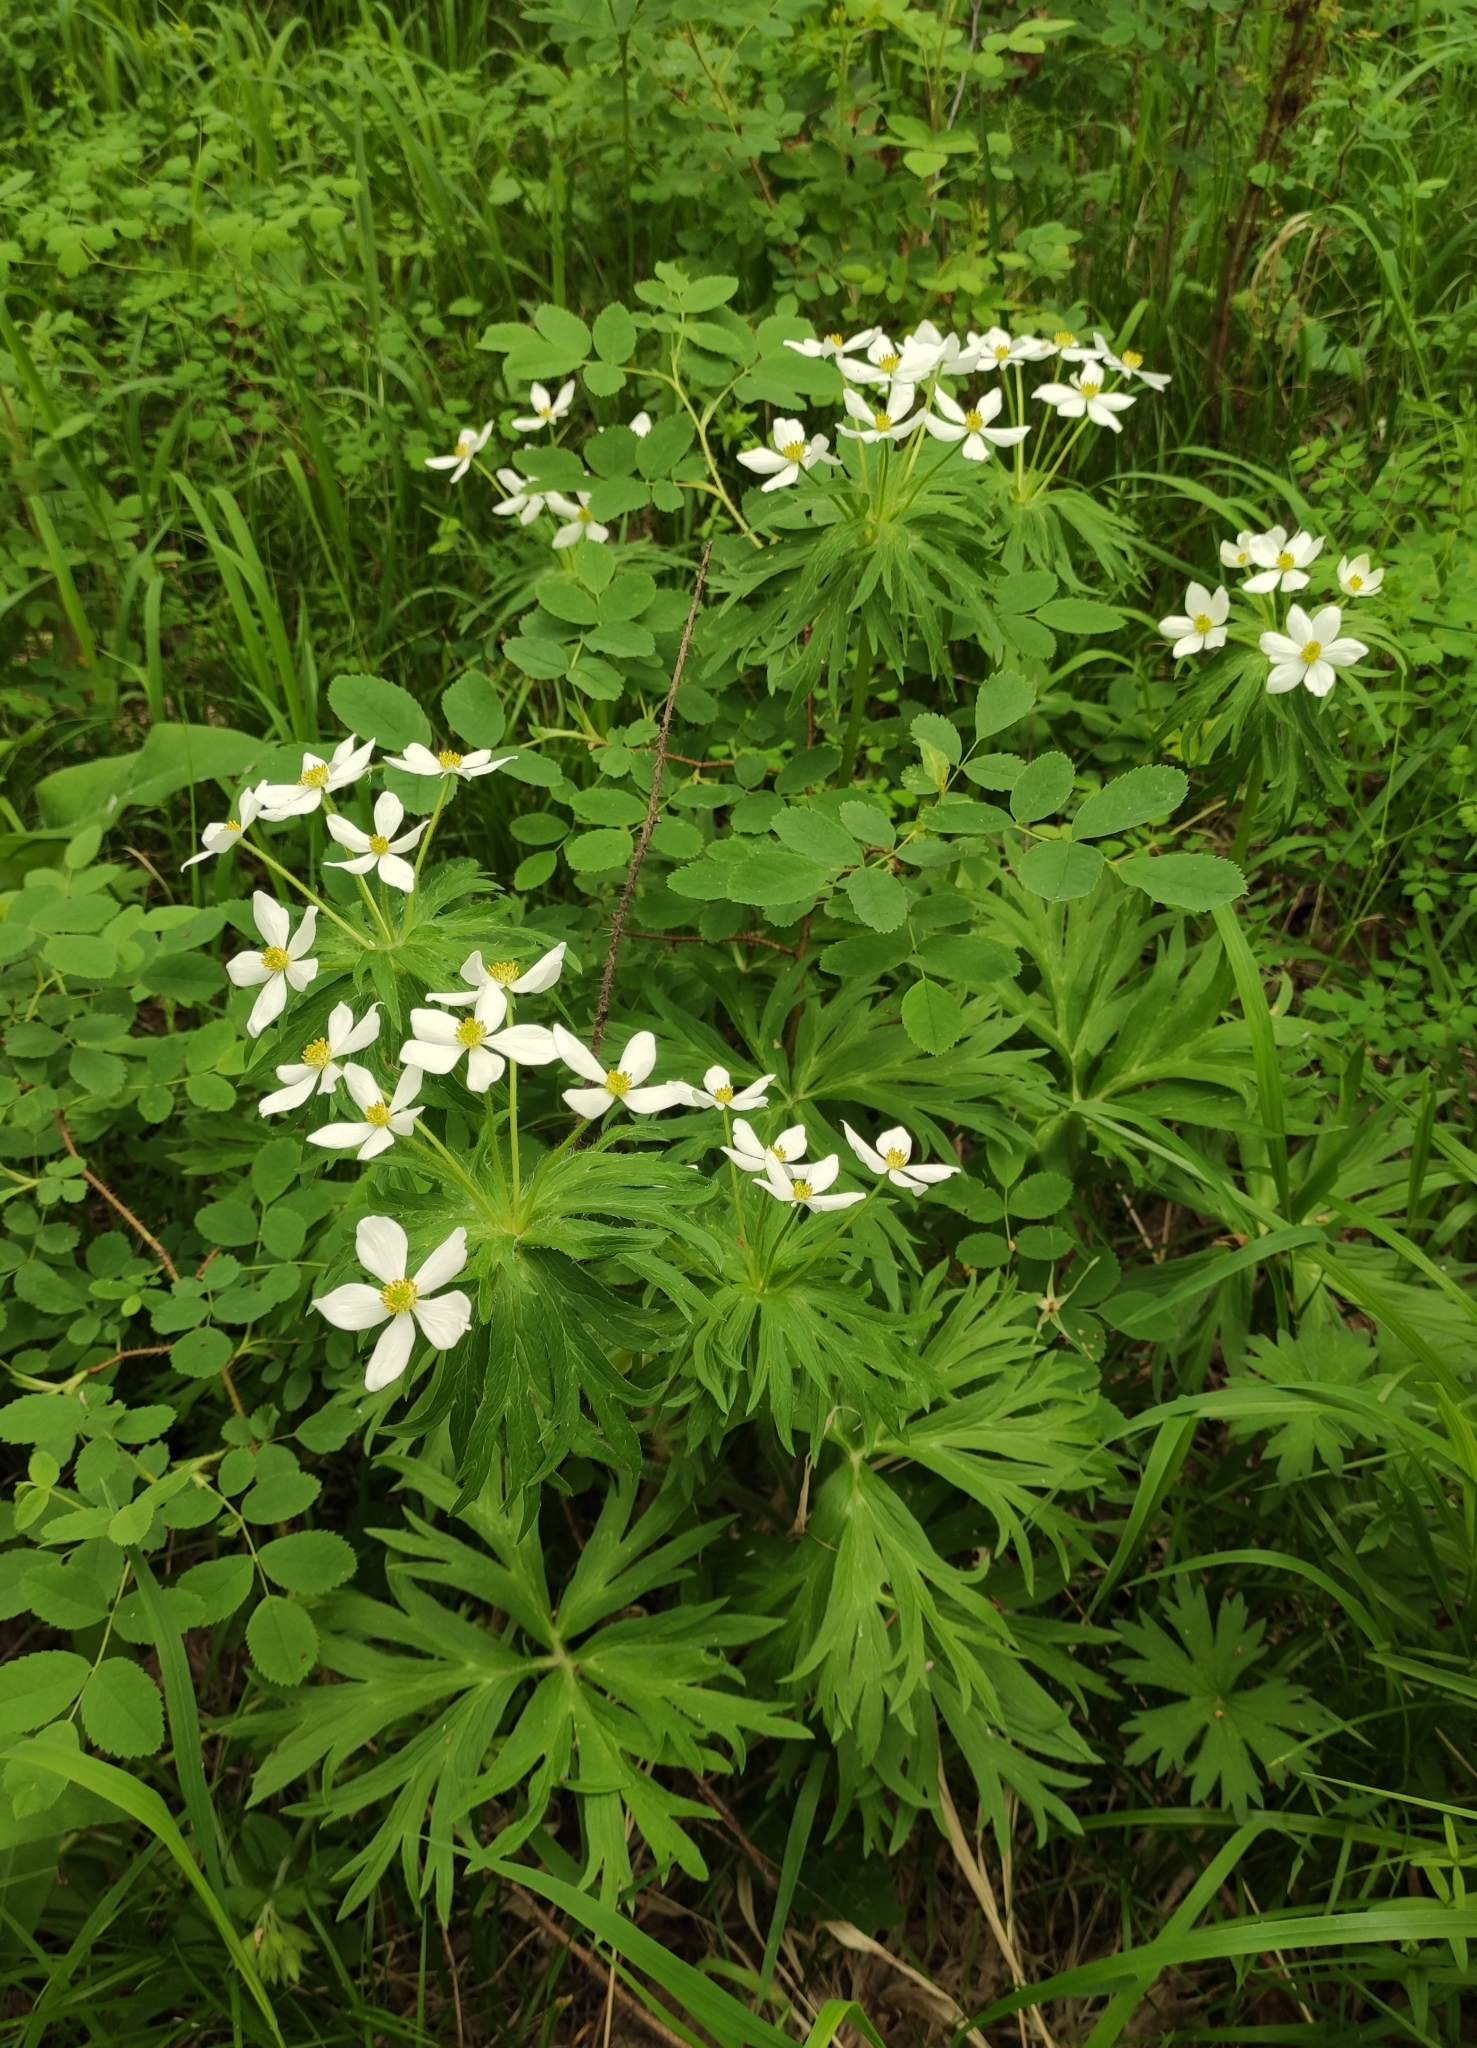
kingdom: Plantae
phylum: Tracheophyta
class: Magnoliopsida
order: Ranunculales
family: Ranunculaceae
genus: Anemonastrum
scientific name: Anemonastrum narcissiflorum
